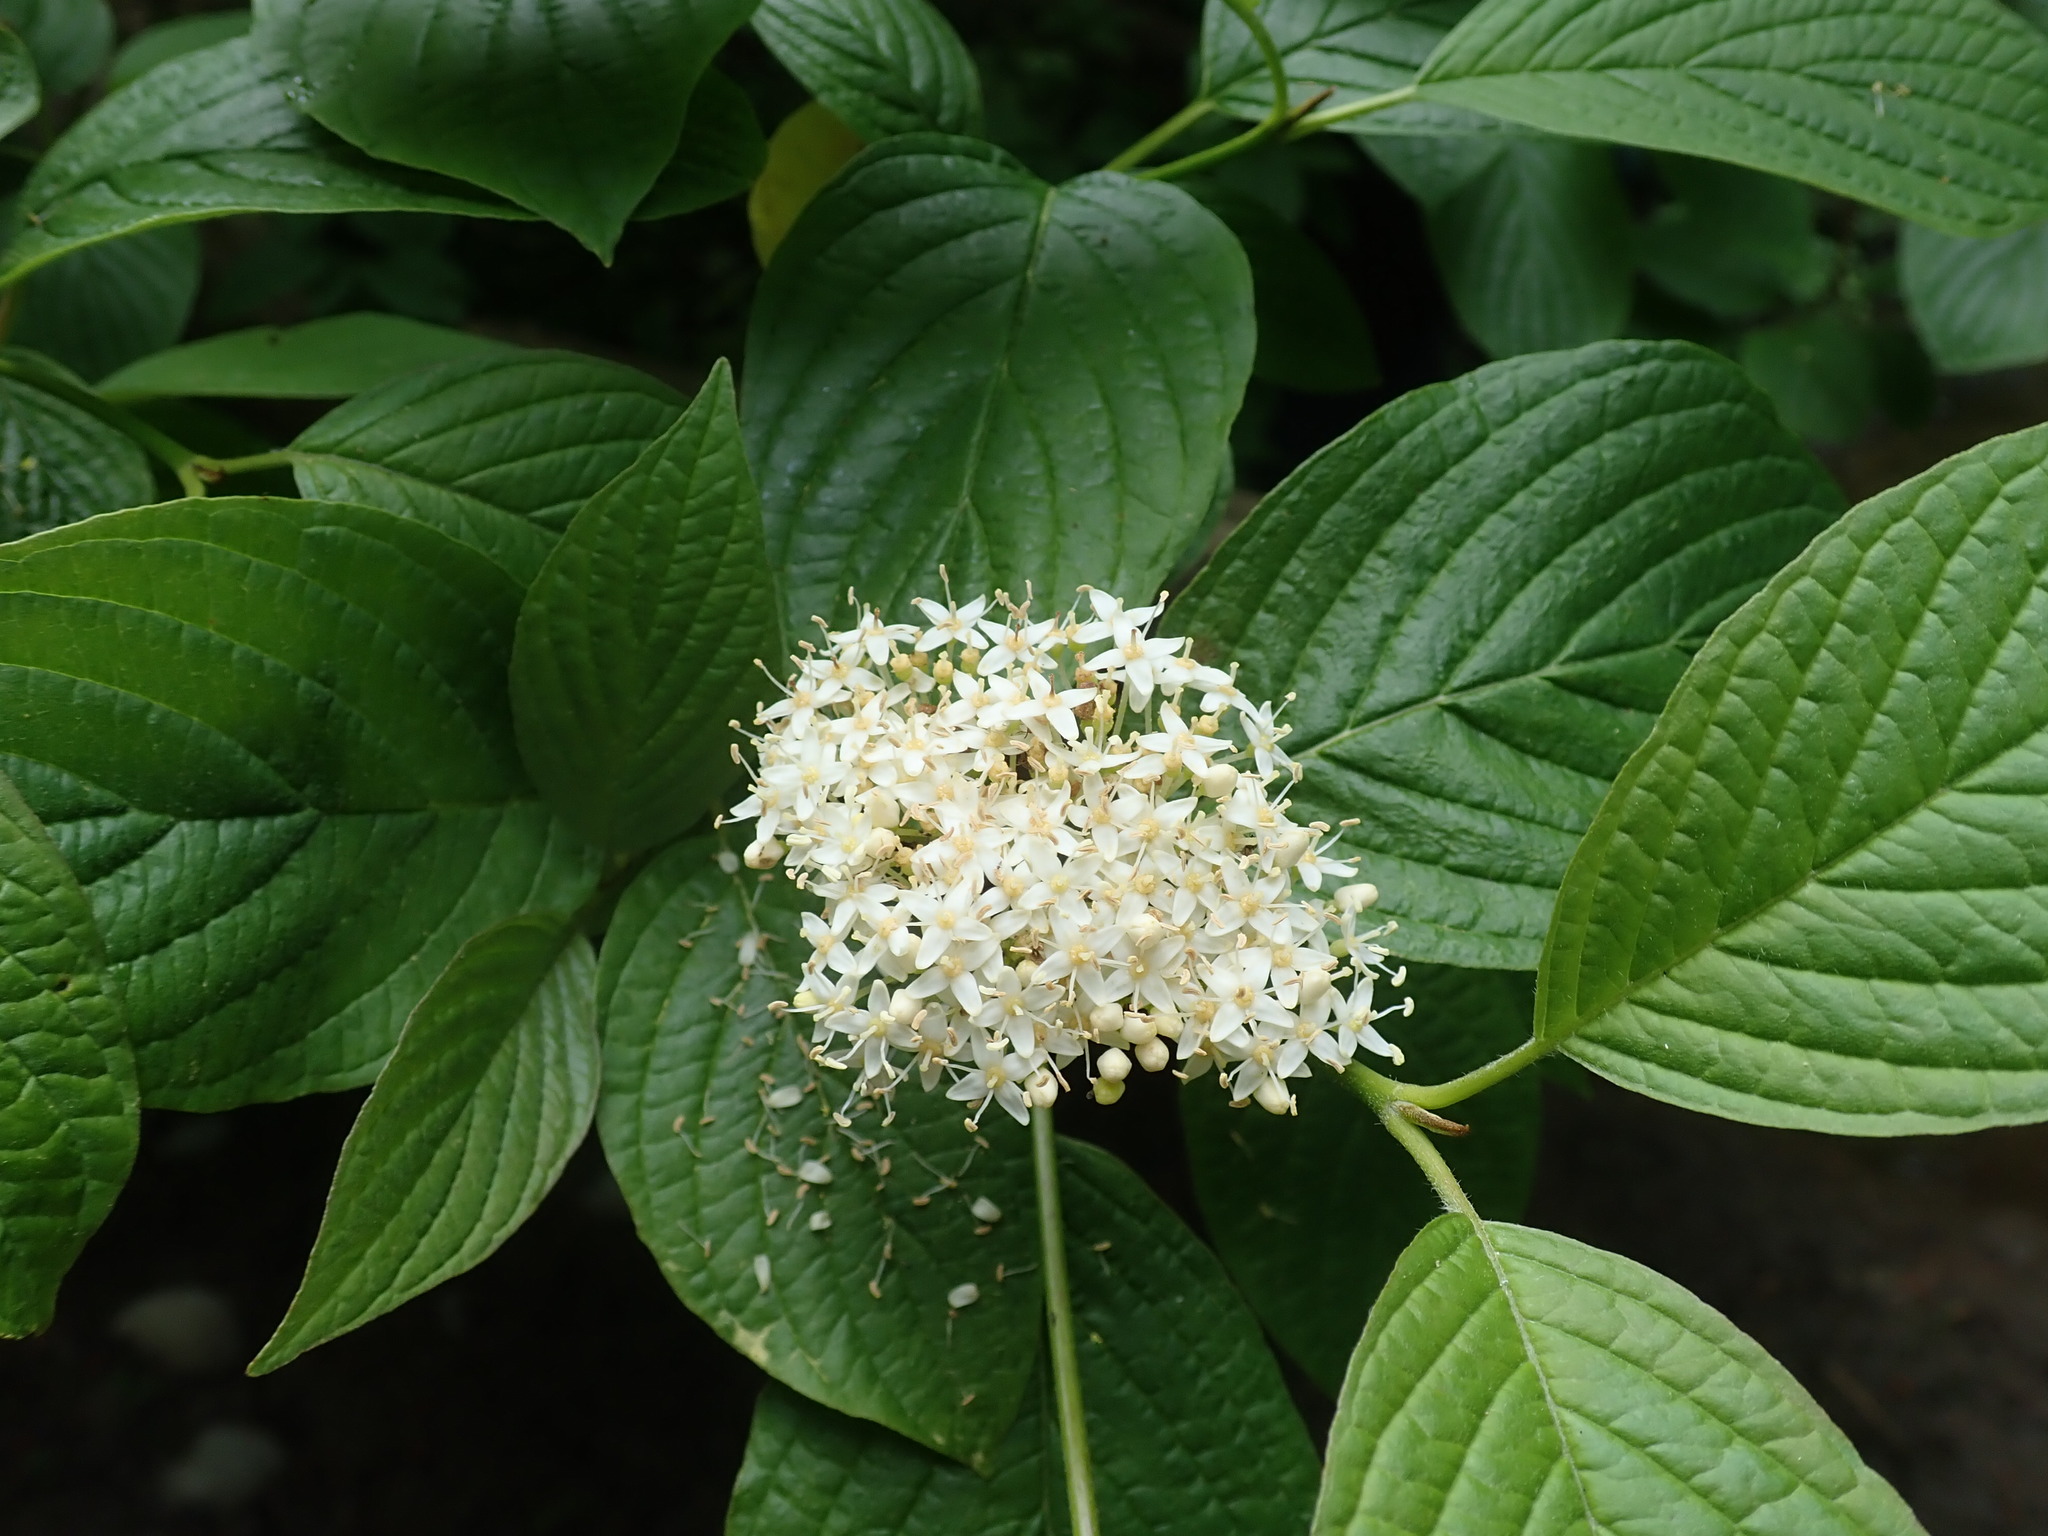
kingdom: Plantae
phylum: Tracheophyta
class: Magnoliopsida
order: Cornales
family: Cornaceae
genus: Cornus
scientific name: Cornus sericea
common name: Red-osier dogwood
